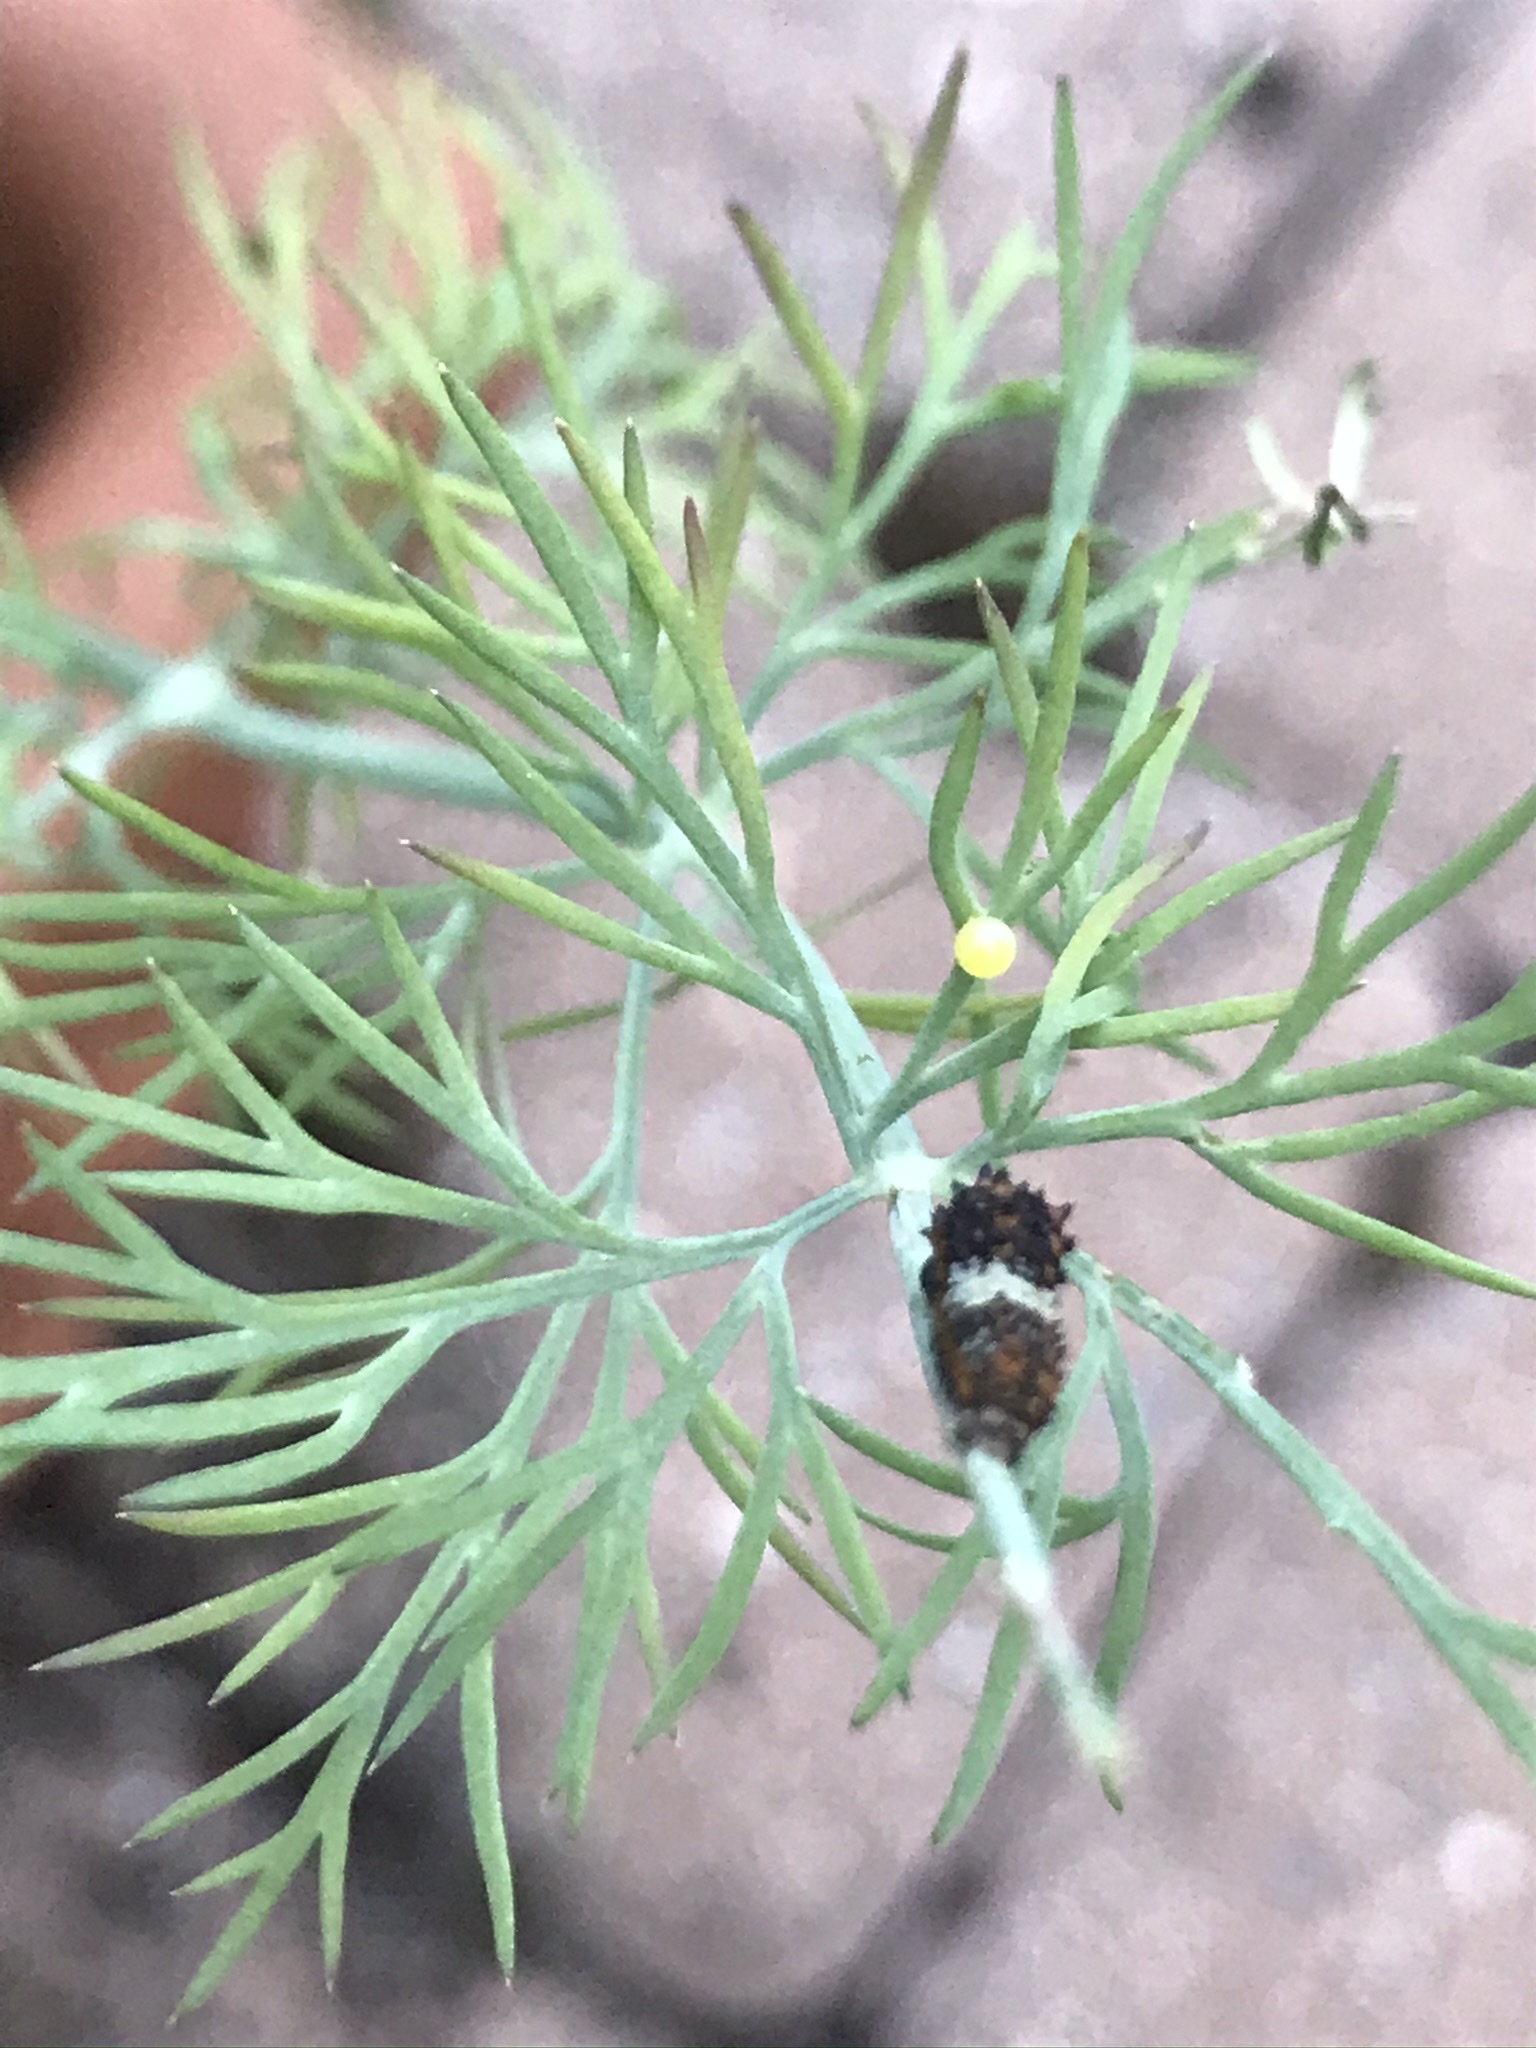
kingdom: Animalia
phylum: Arthropoda
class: Insecta
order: Lepidoptera
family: Papilionidae
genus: Papilio
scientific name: Papilio polyxenes
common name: Black swallowtail
